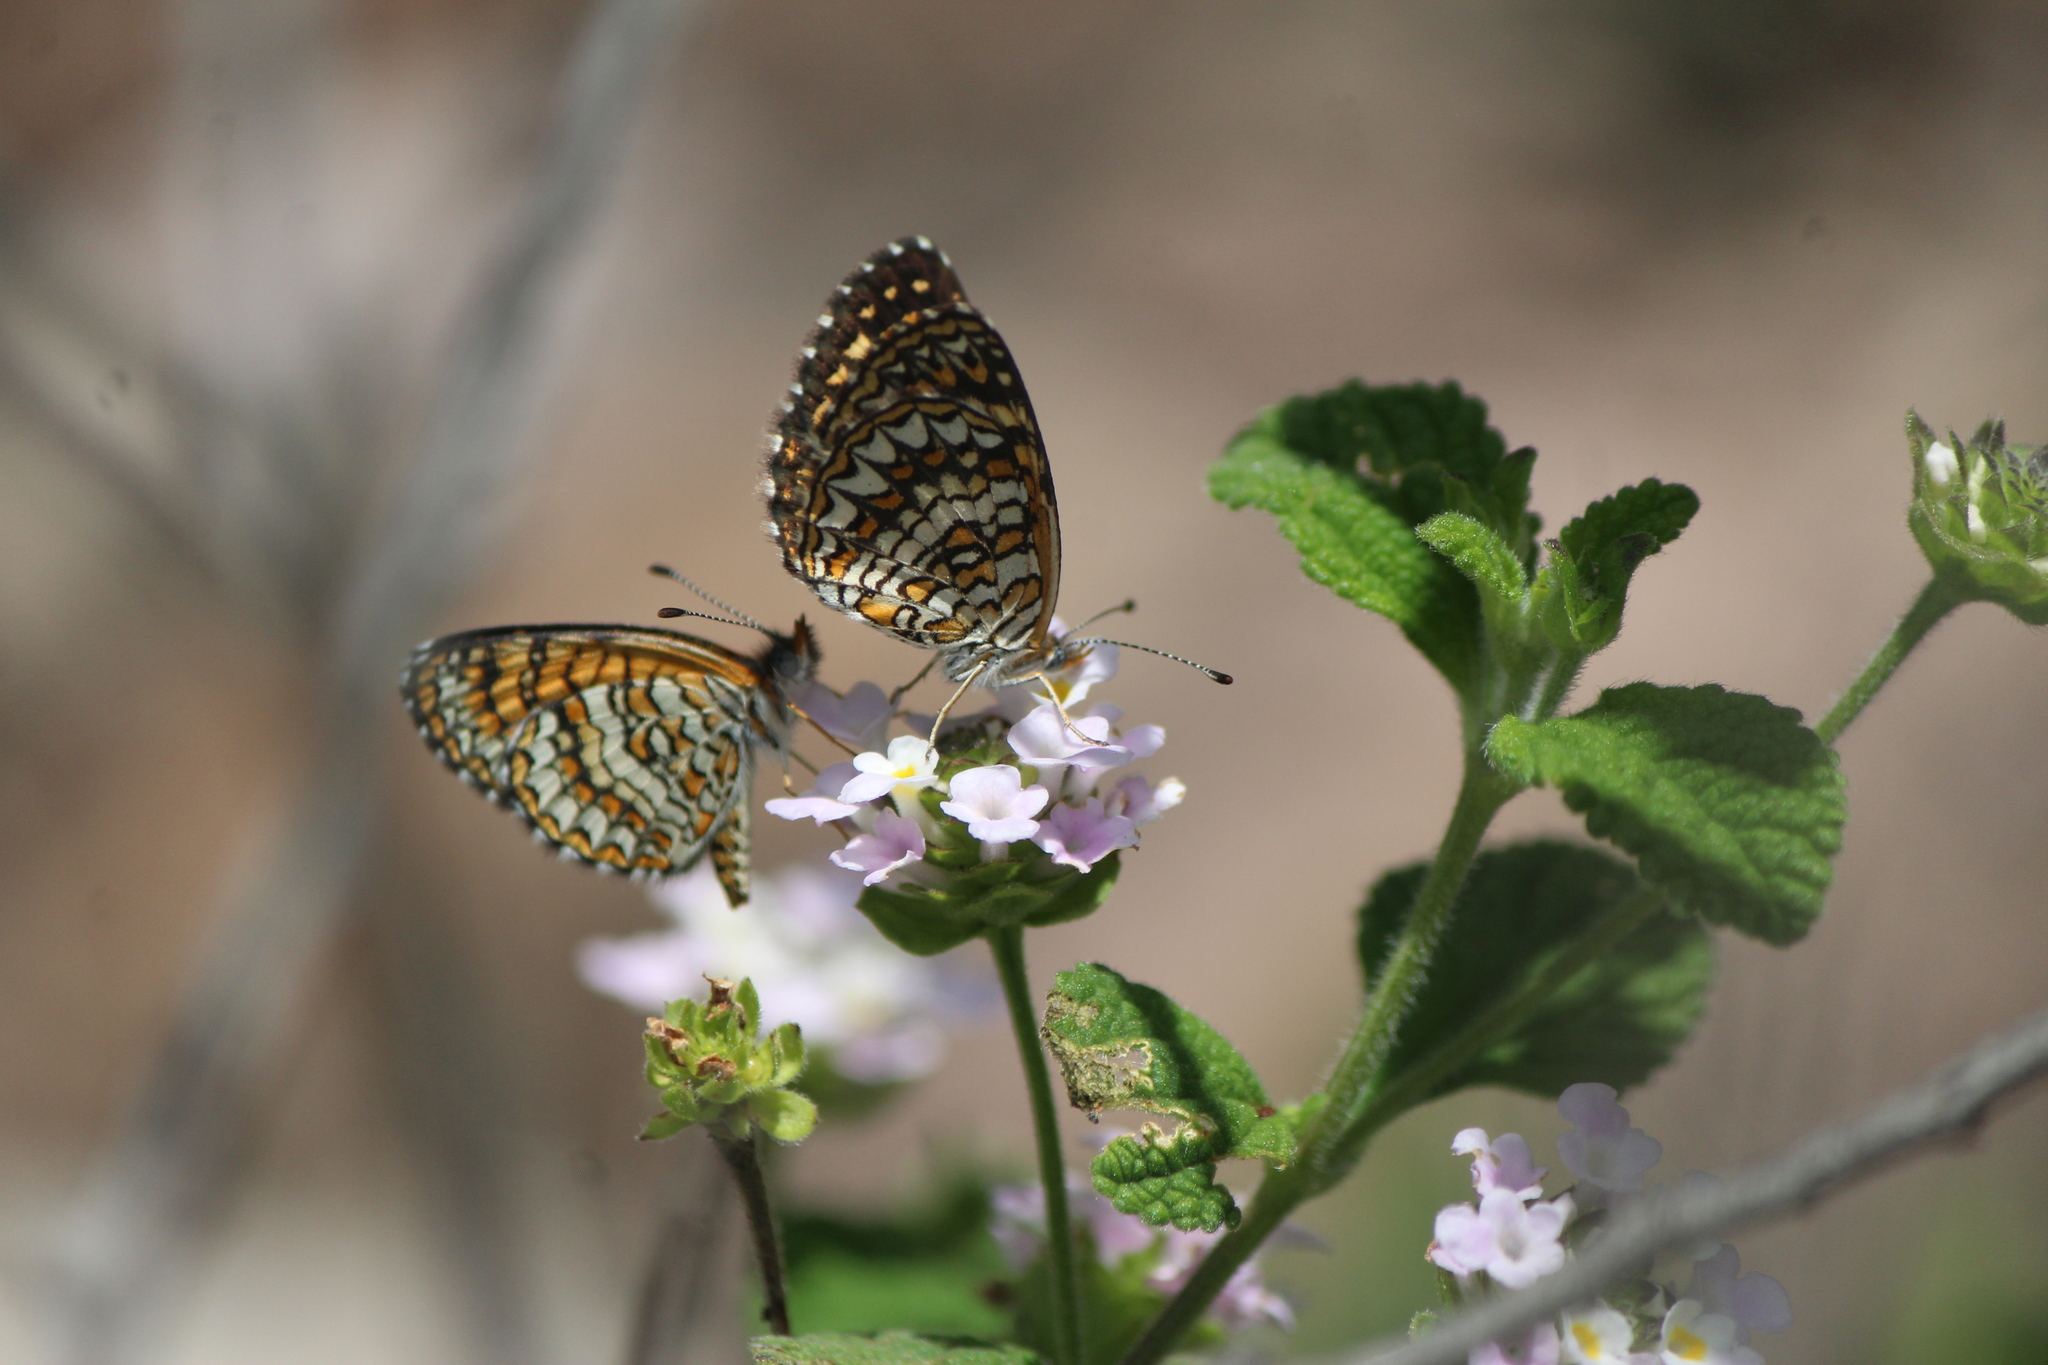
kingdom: Animalia
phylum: Arthropoda
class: Insecta
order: Lepidoptera
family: Nymphalidae
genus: Texola
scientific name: Texola elada
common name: Elada checkerspot
